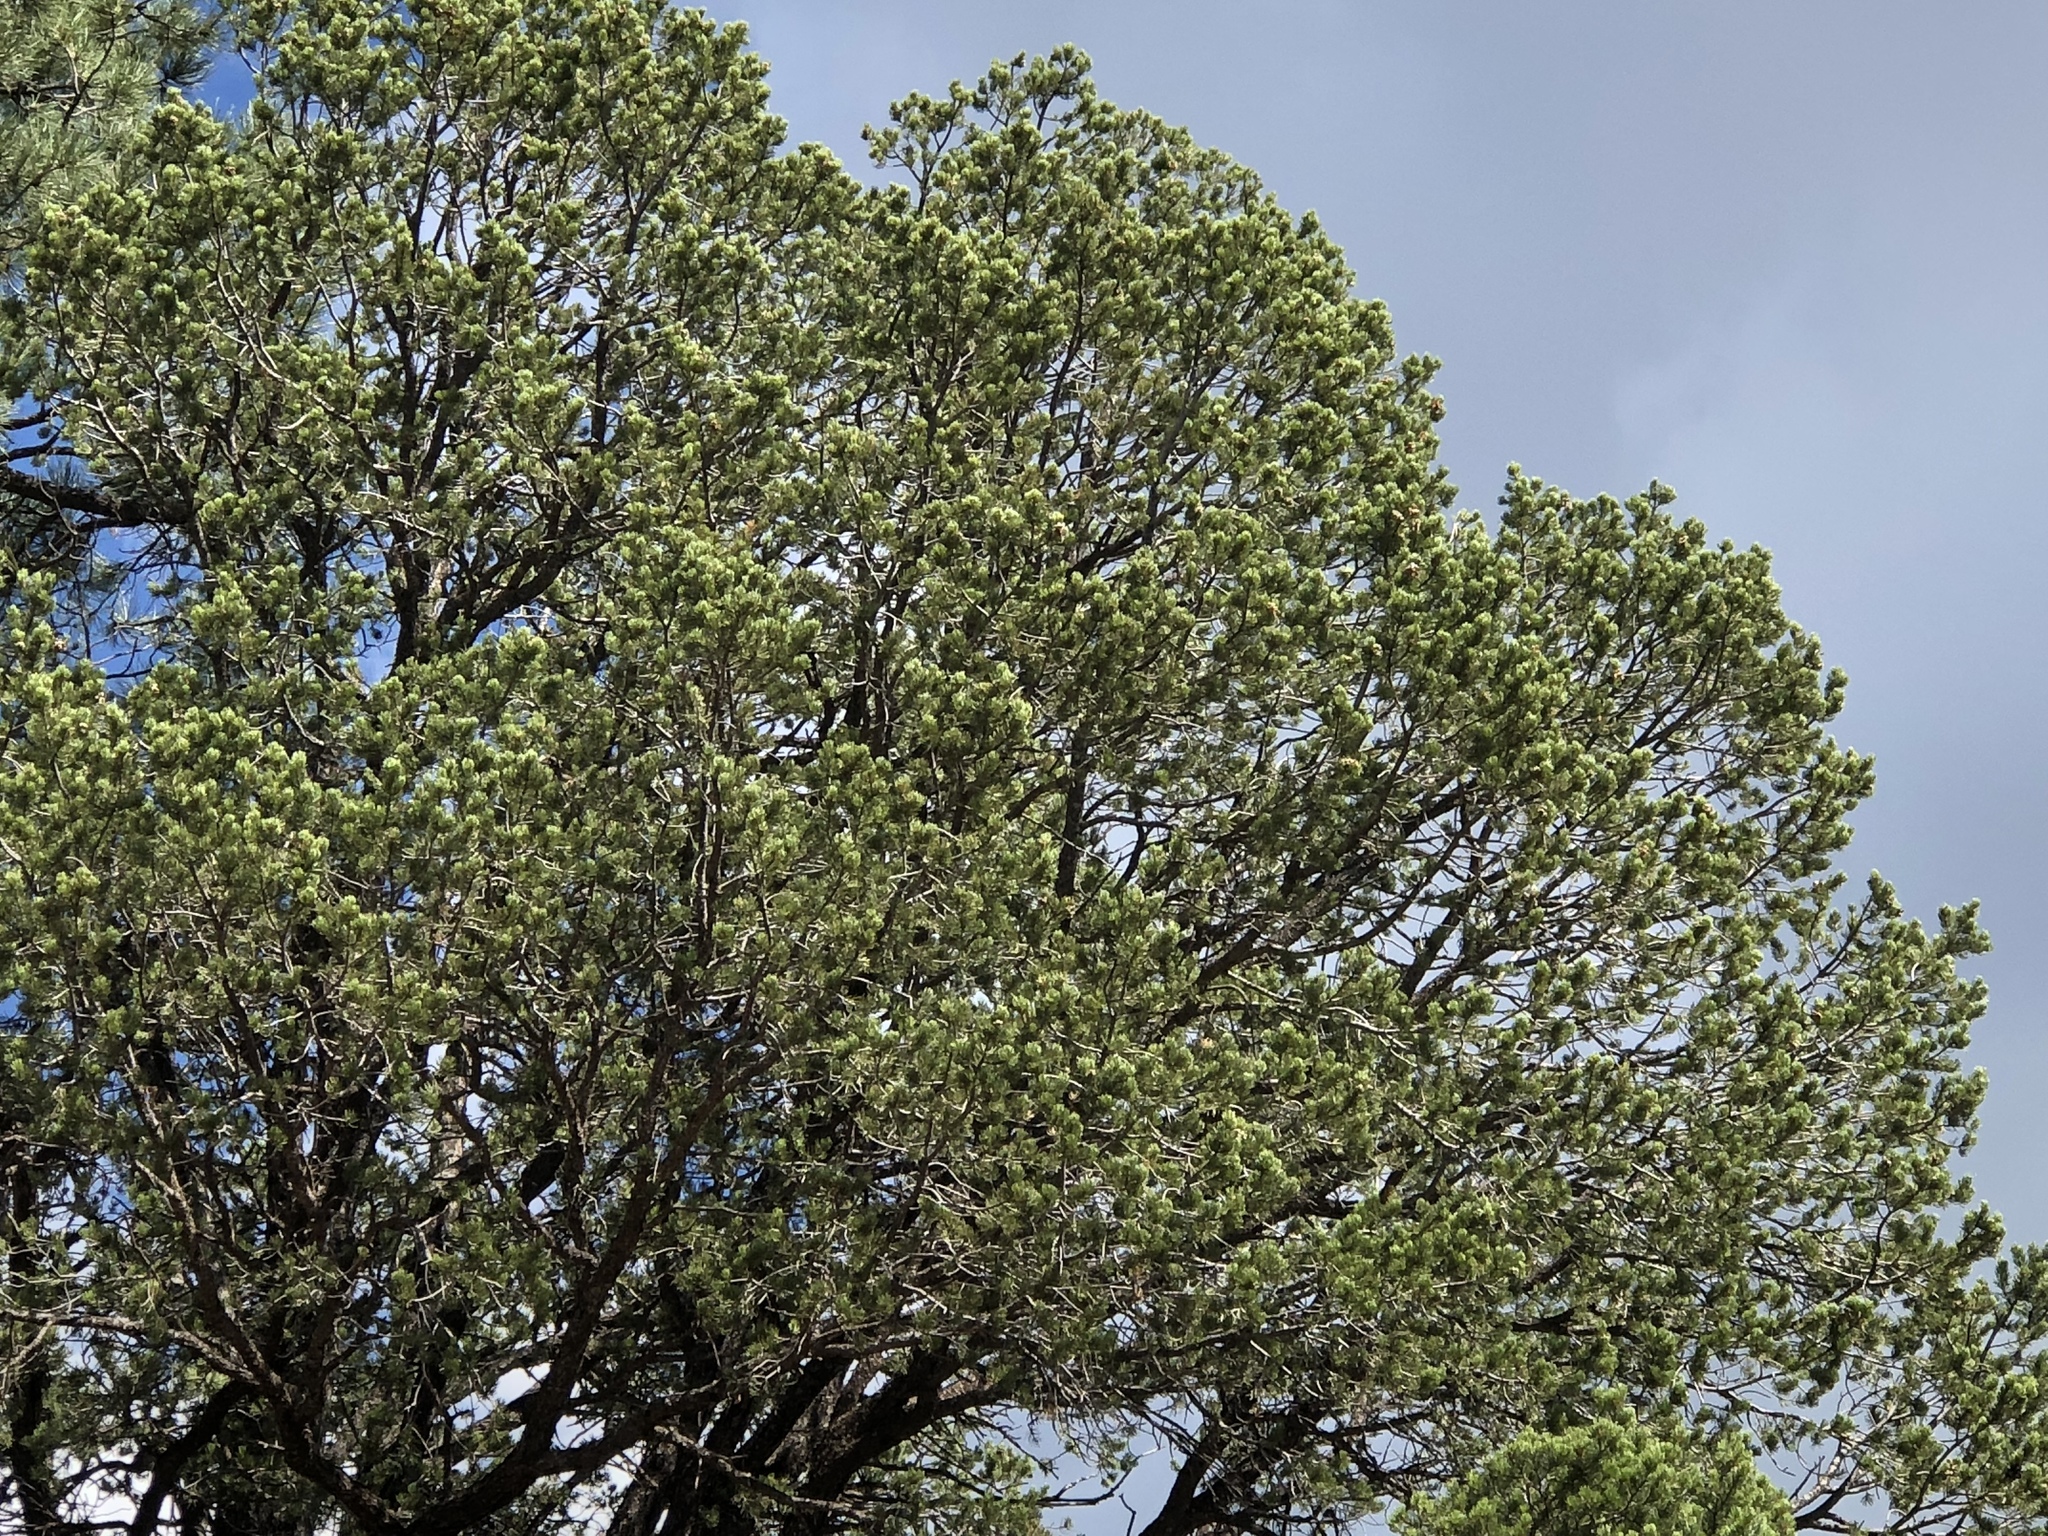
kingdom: Plantae
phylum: Tracheophyta
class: Pinopsida
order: Pinales
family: Pinaceae
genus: Pinus
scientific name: Pinus edulis
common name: Colorado pinyon
